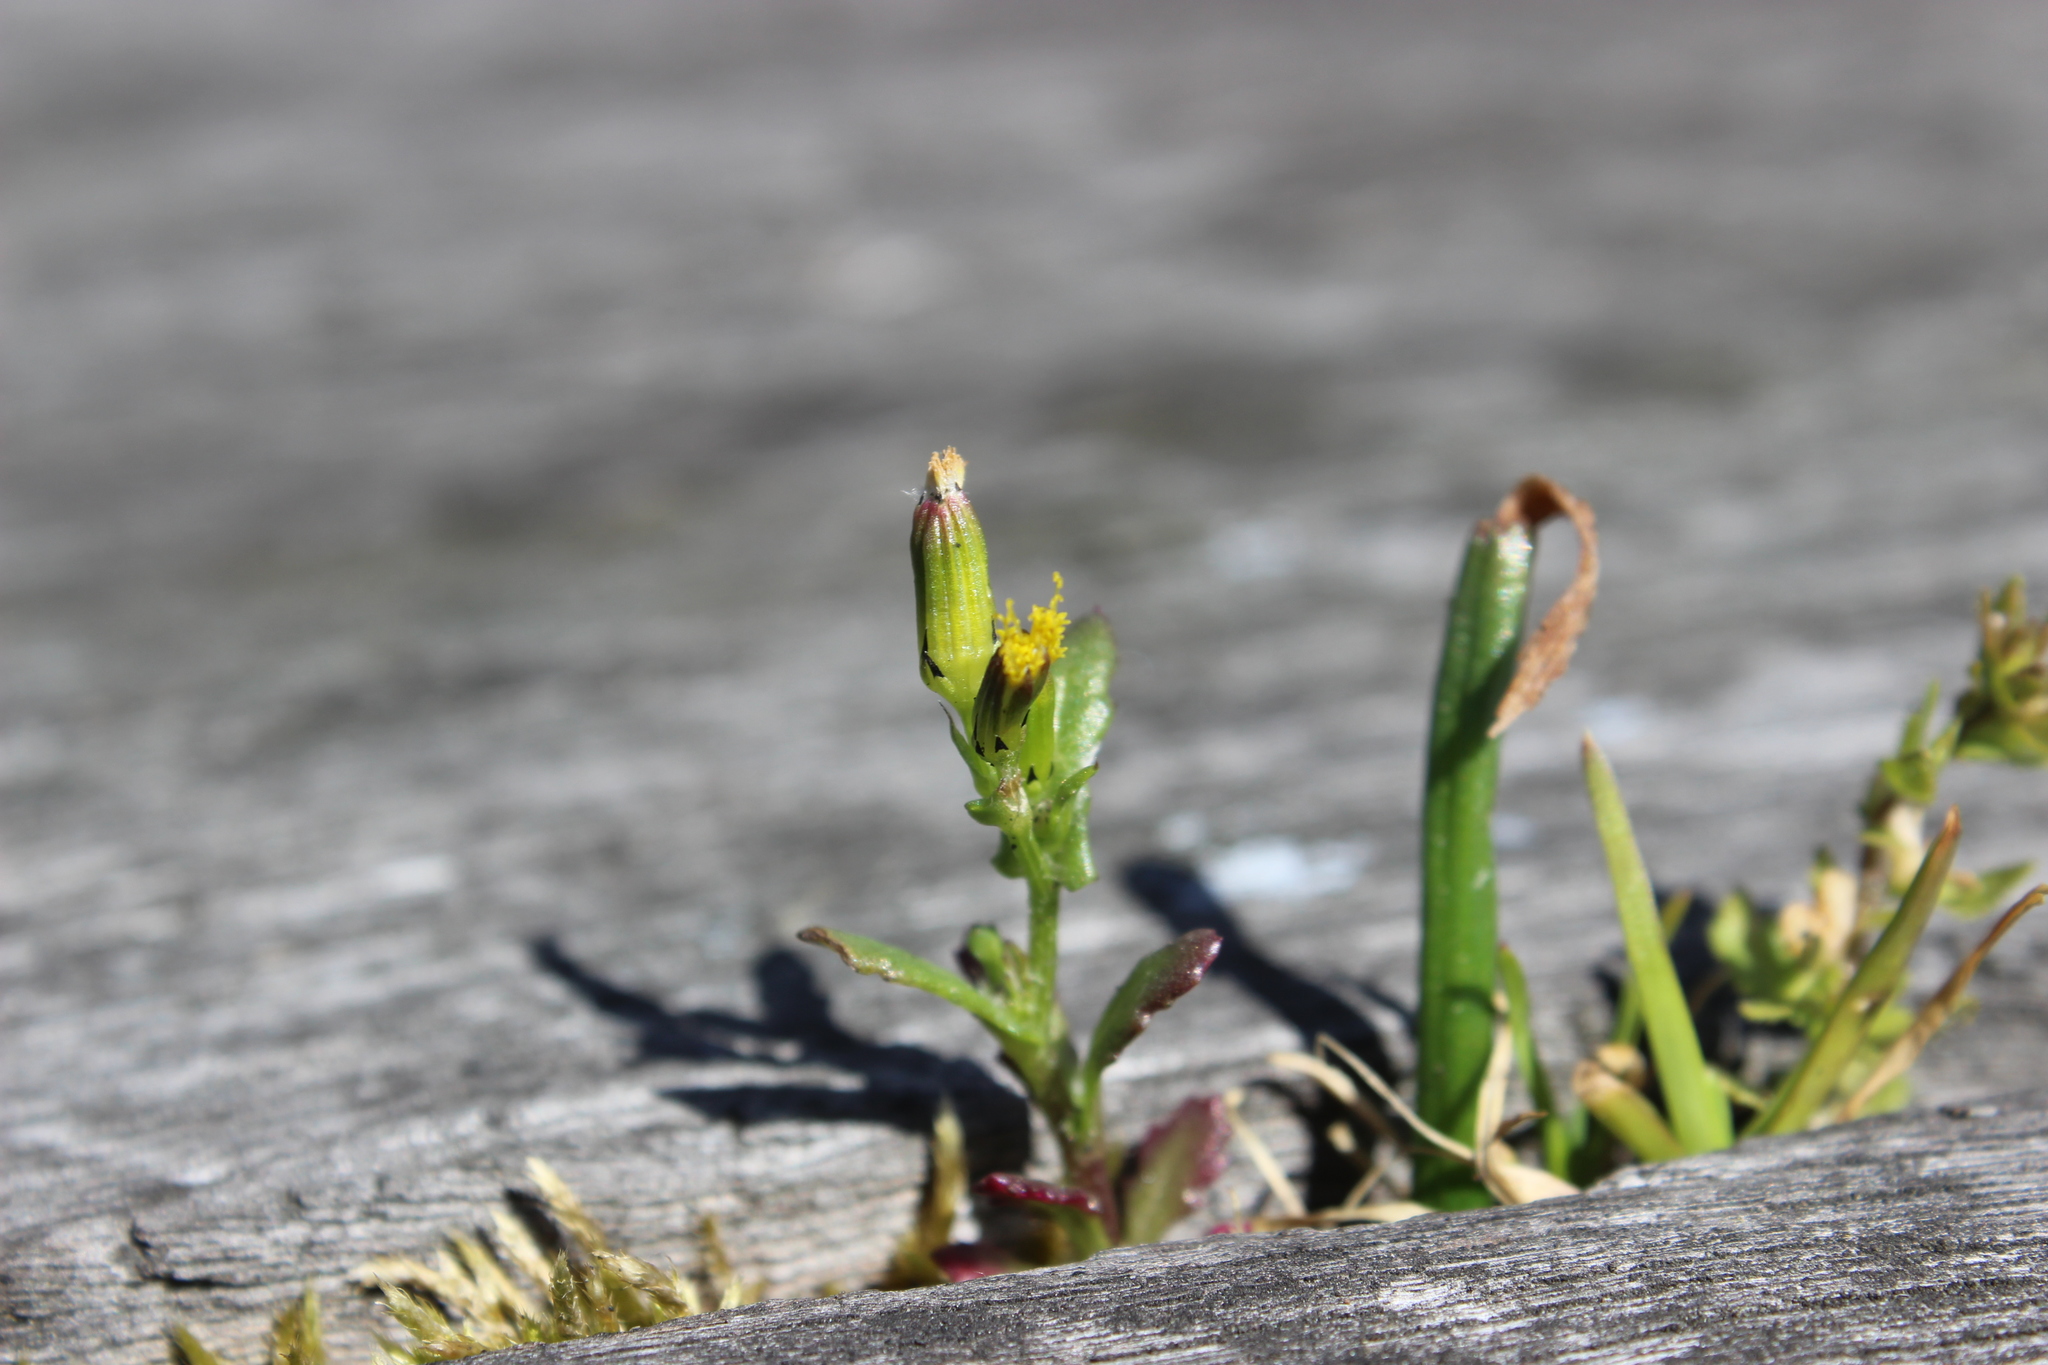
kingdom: Plantae
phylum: Tracheophyta
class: Magnoliopsida
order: Asterales
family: Asteraceae
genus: Senecio
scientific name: Senecio vulgaris
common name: Old-man-in-the-spring
